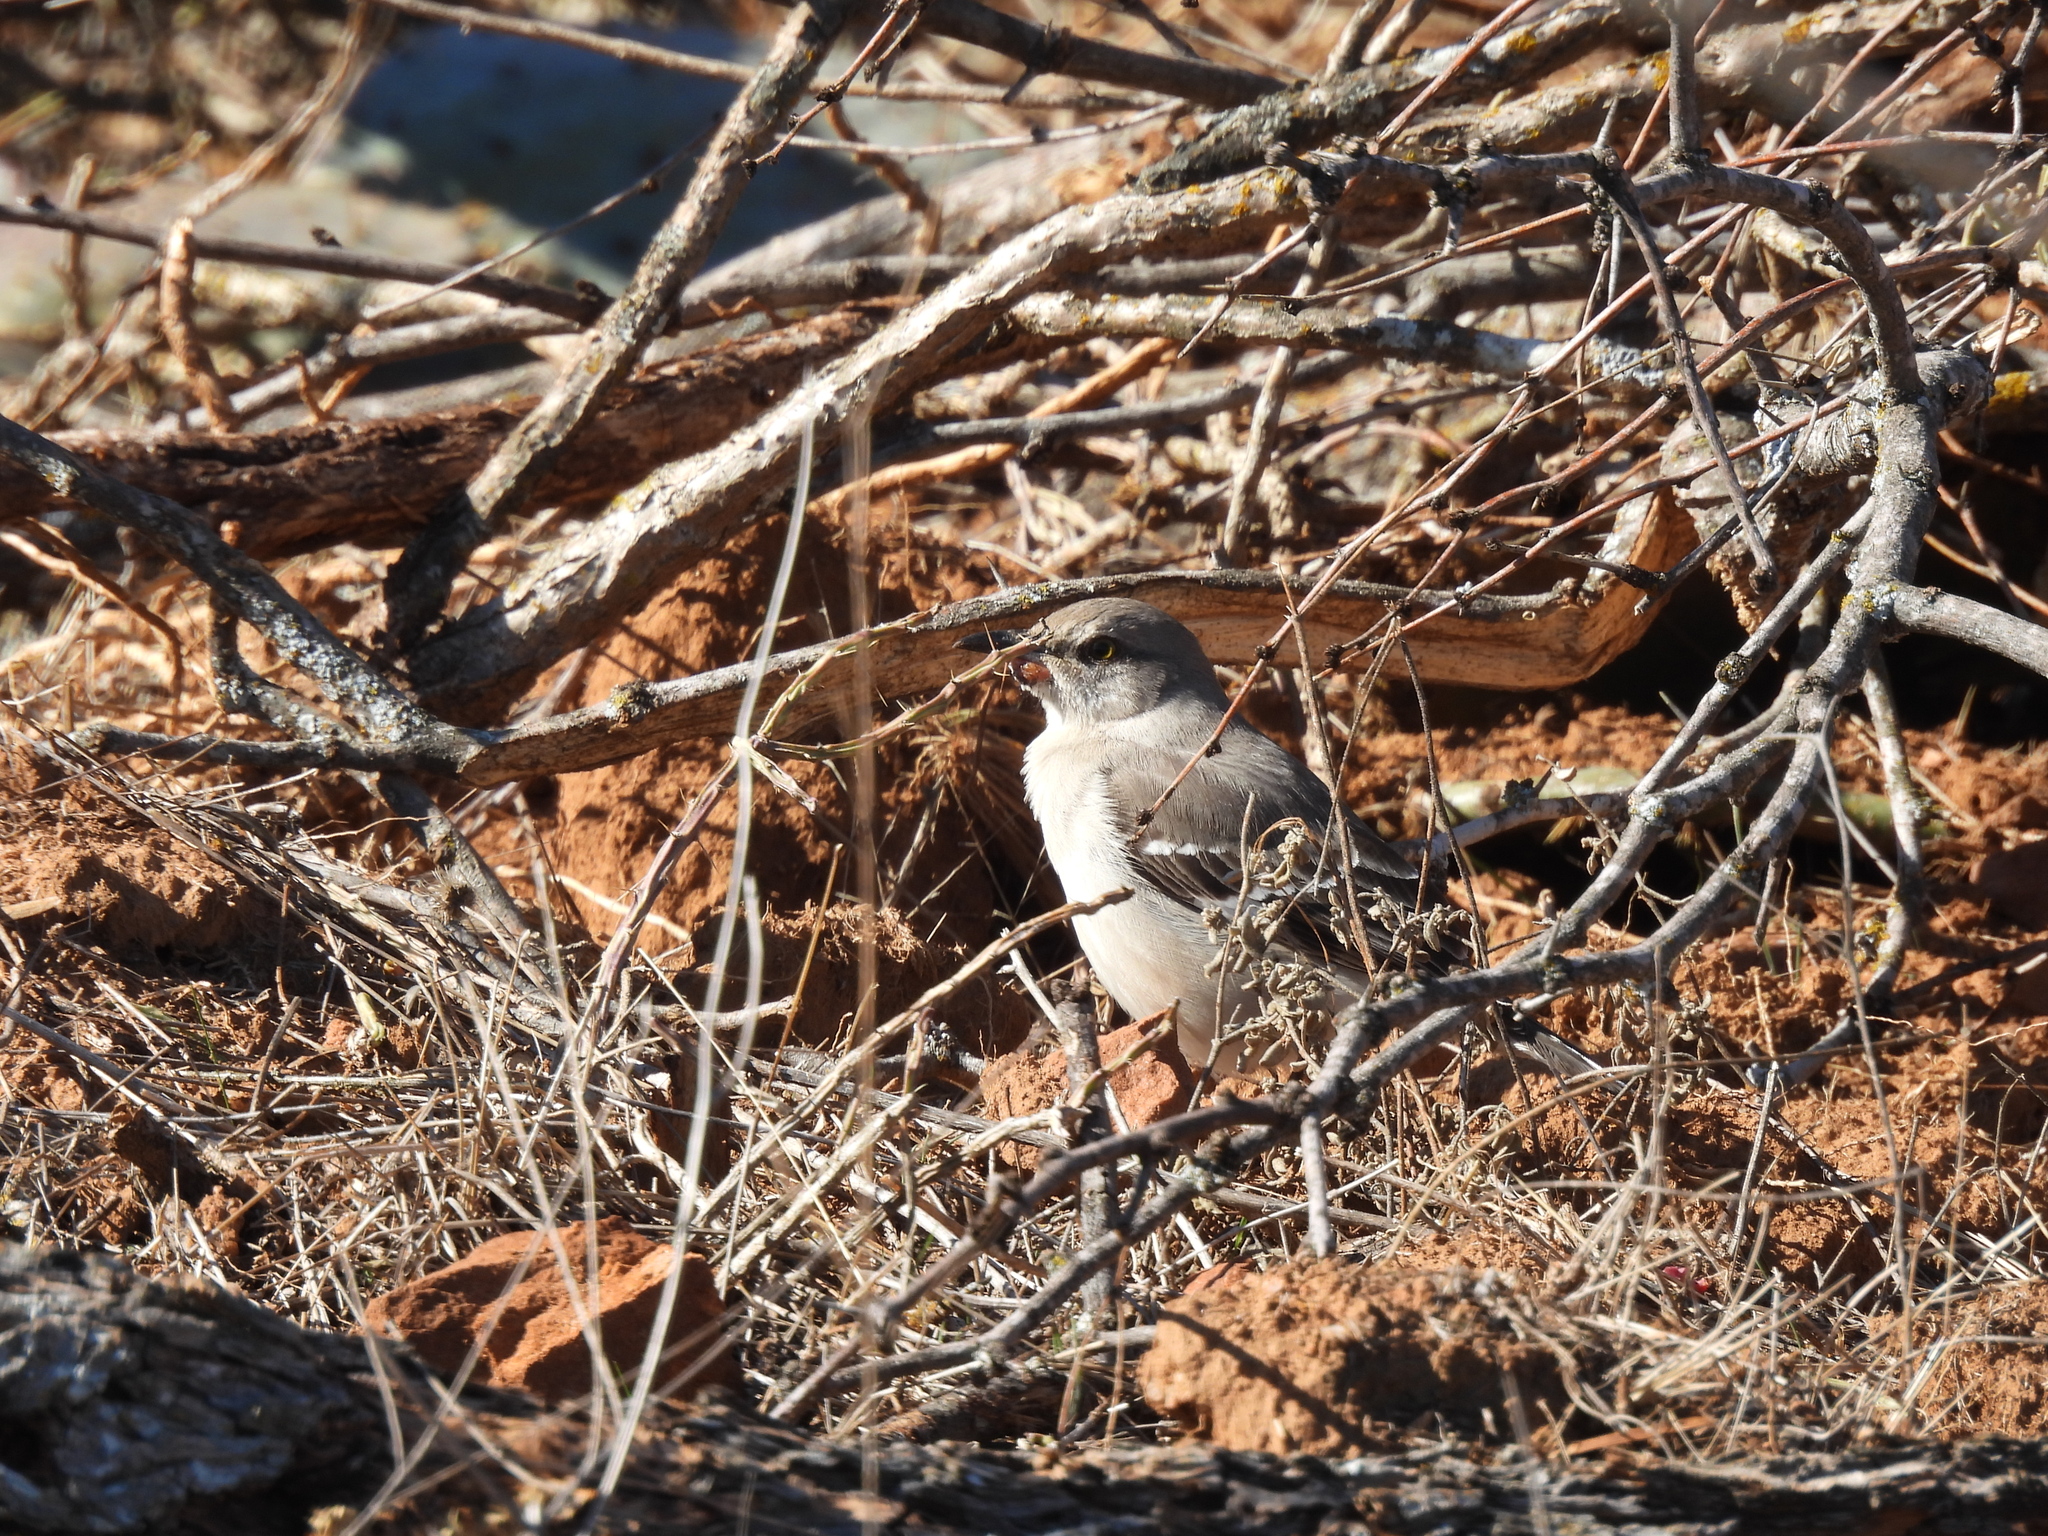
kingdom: Animalia
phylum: Chordata
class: Aves
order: Passeriformes
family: Mimidae
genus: Mimus
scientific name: Mimus polyglottos
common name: Northern mockingbird
